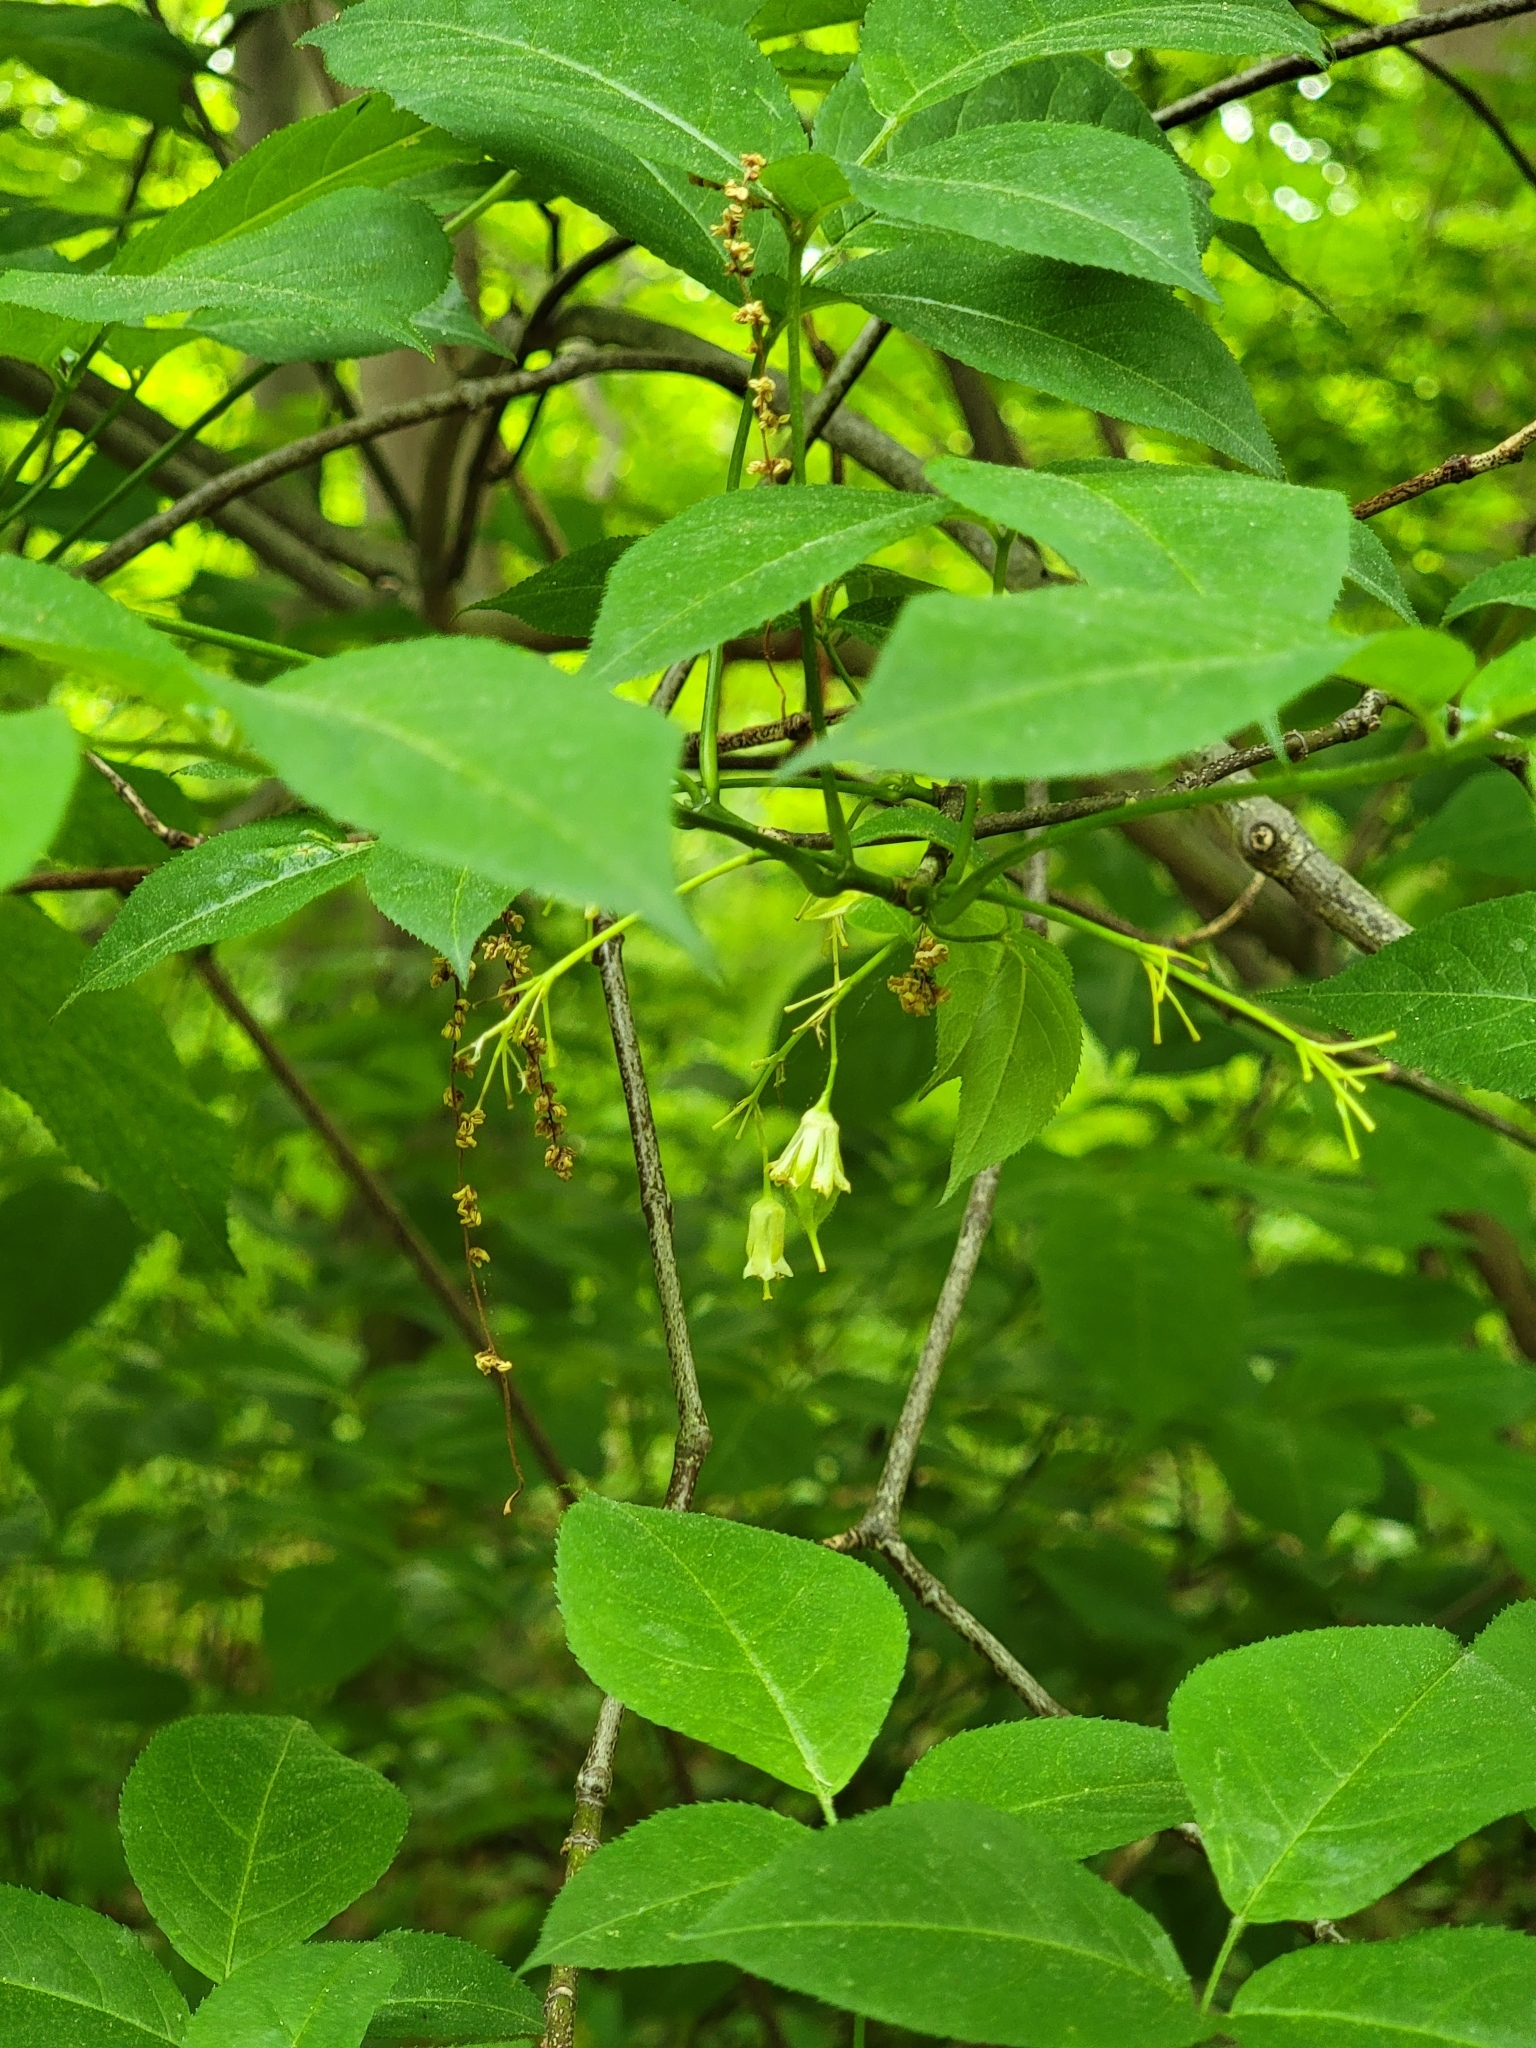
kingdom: Plantae
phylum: Tracheophyta
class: Magnoliopsida
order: Crossosomatales
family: Staphyleaceae
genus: Staphylea
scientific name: Staphylea trifolia
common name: American bladdernut
